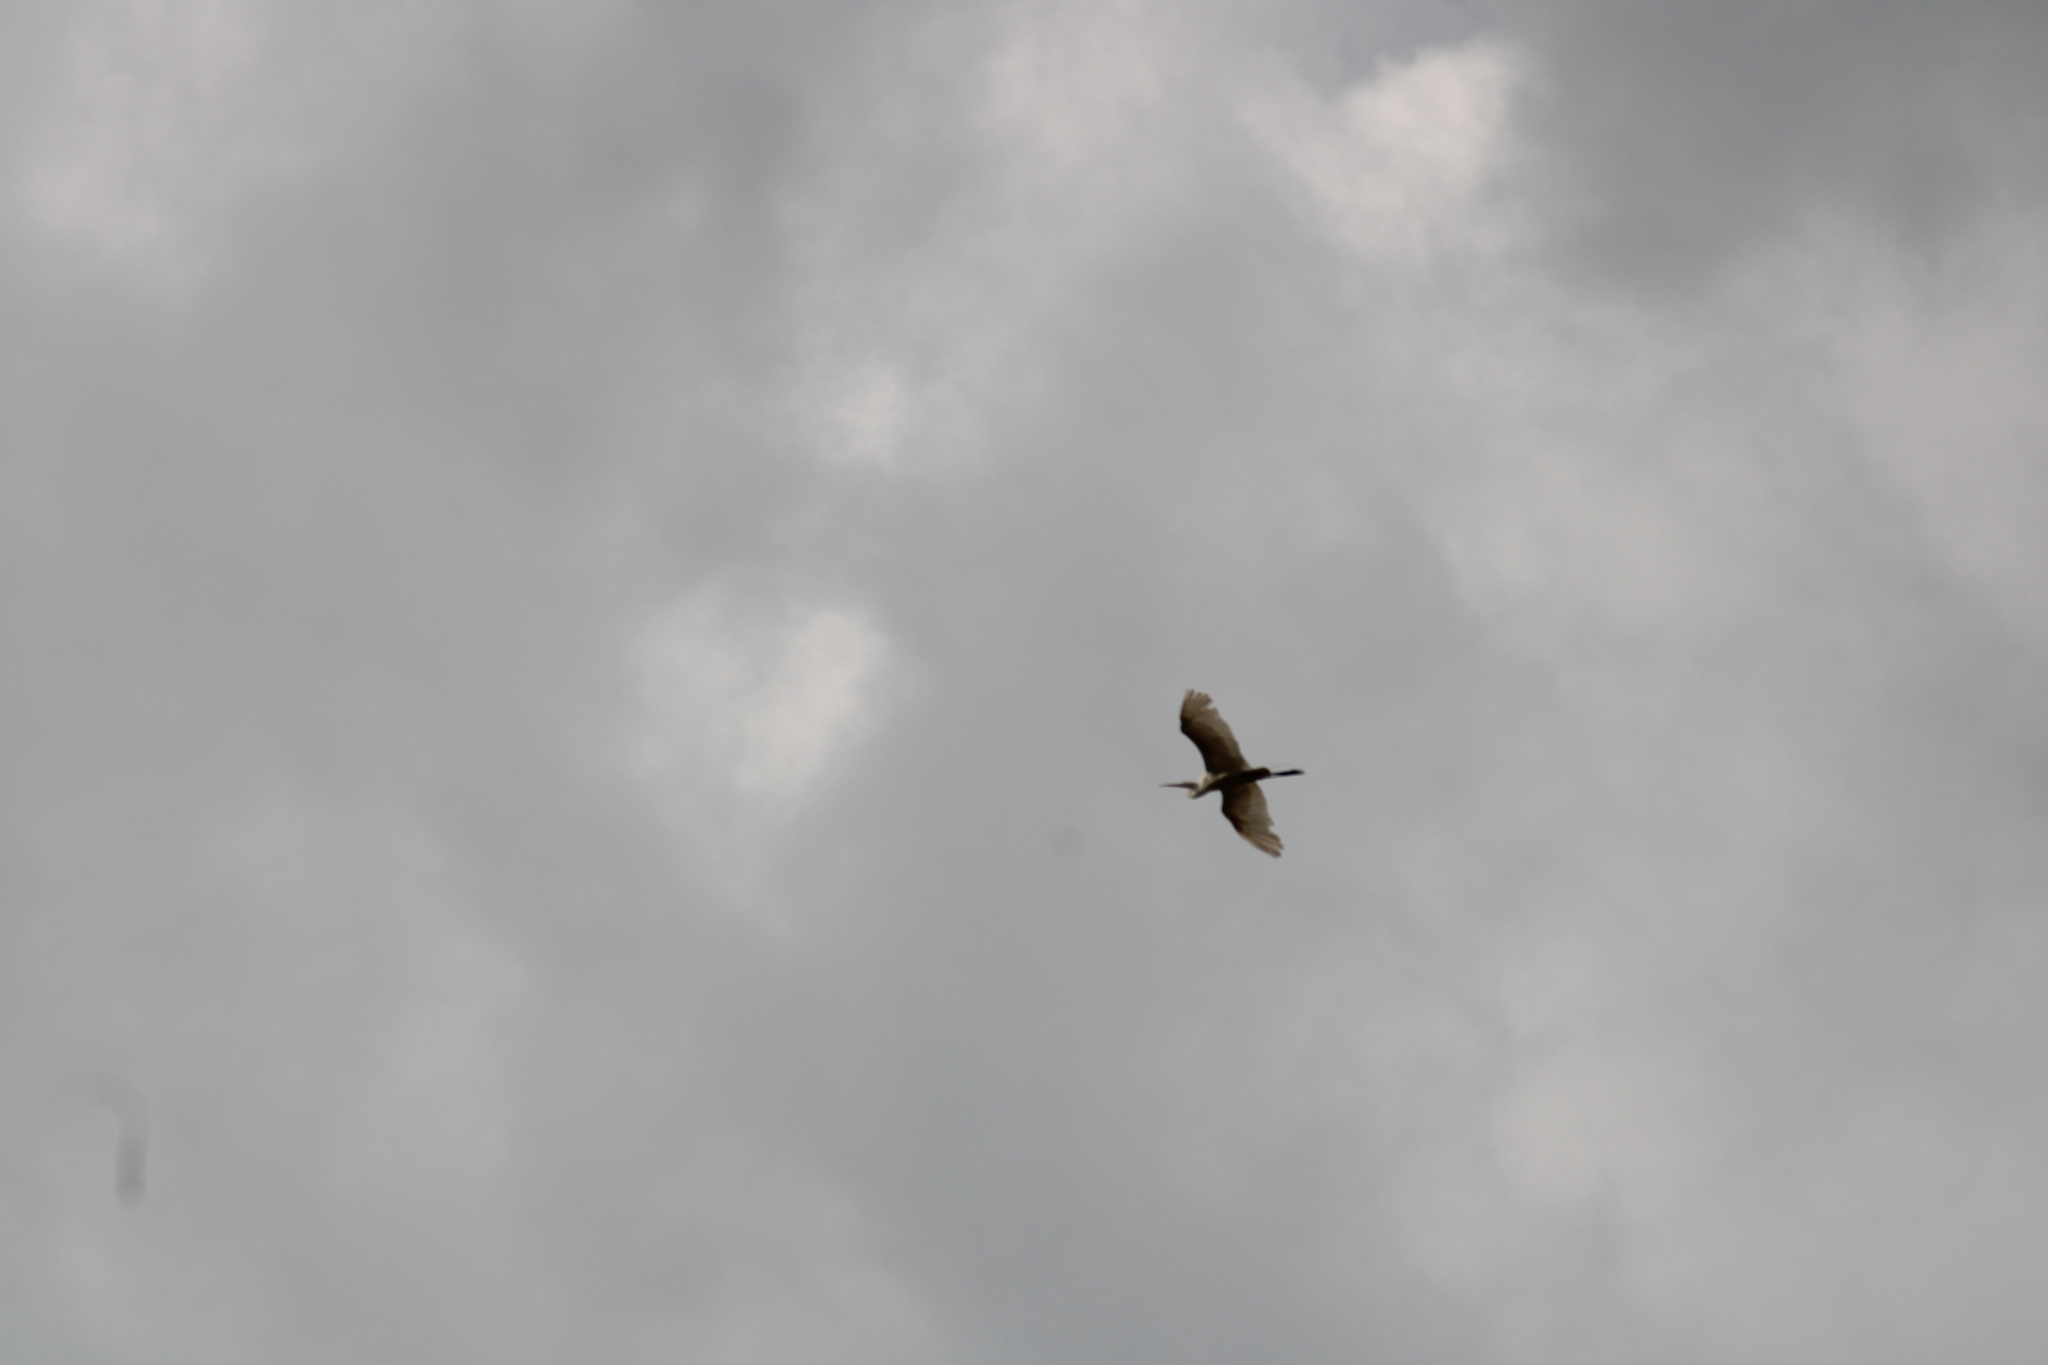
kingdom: Animalia
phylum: Chordata
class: Aves
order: Pelecaniformes
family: Ardeidae
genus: Ardea
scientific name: Ardea alba
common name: Great egret
